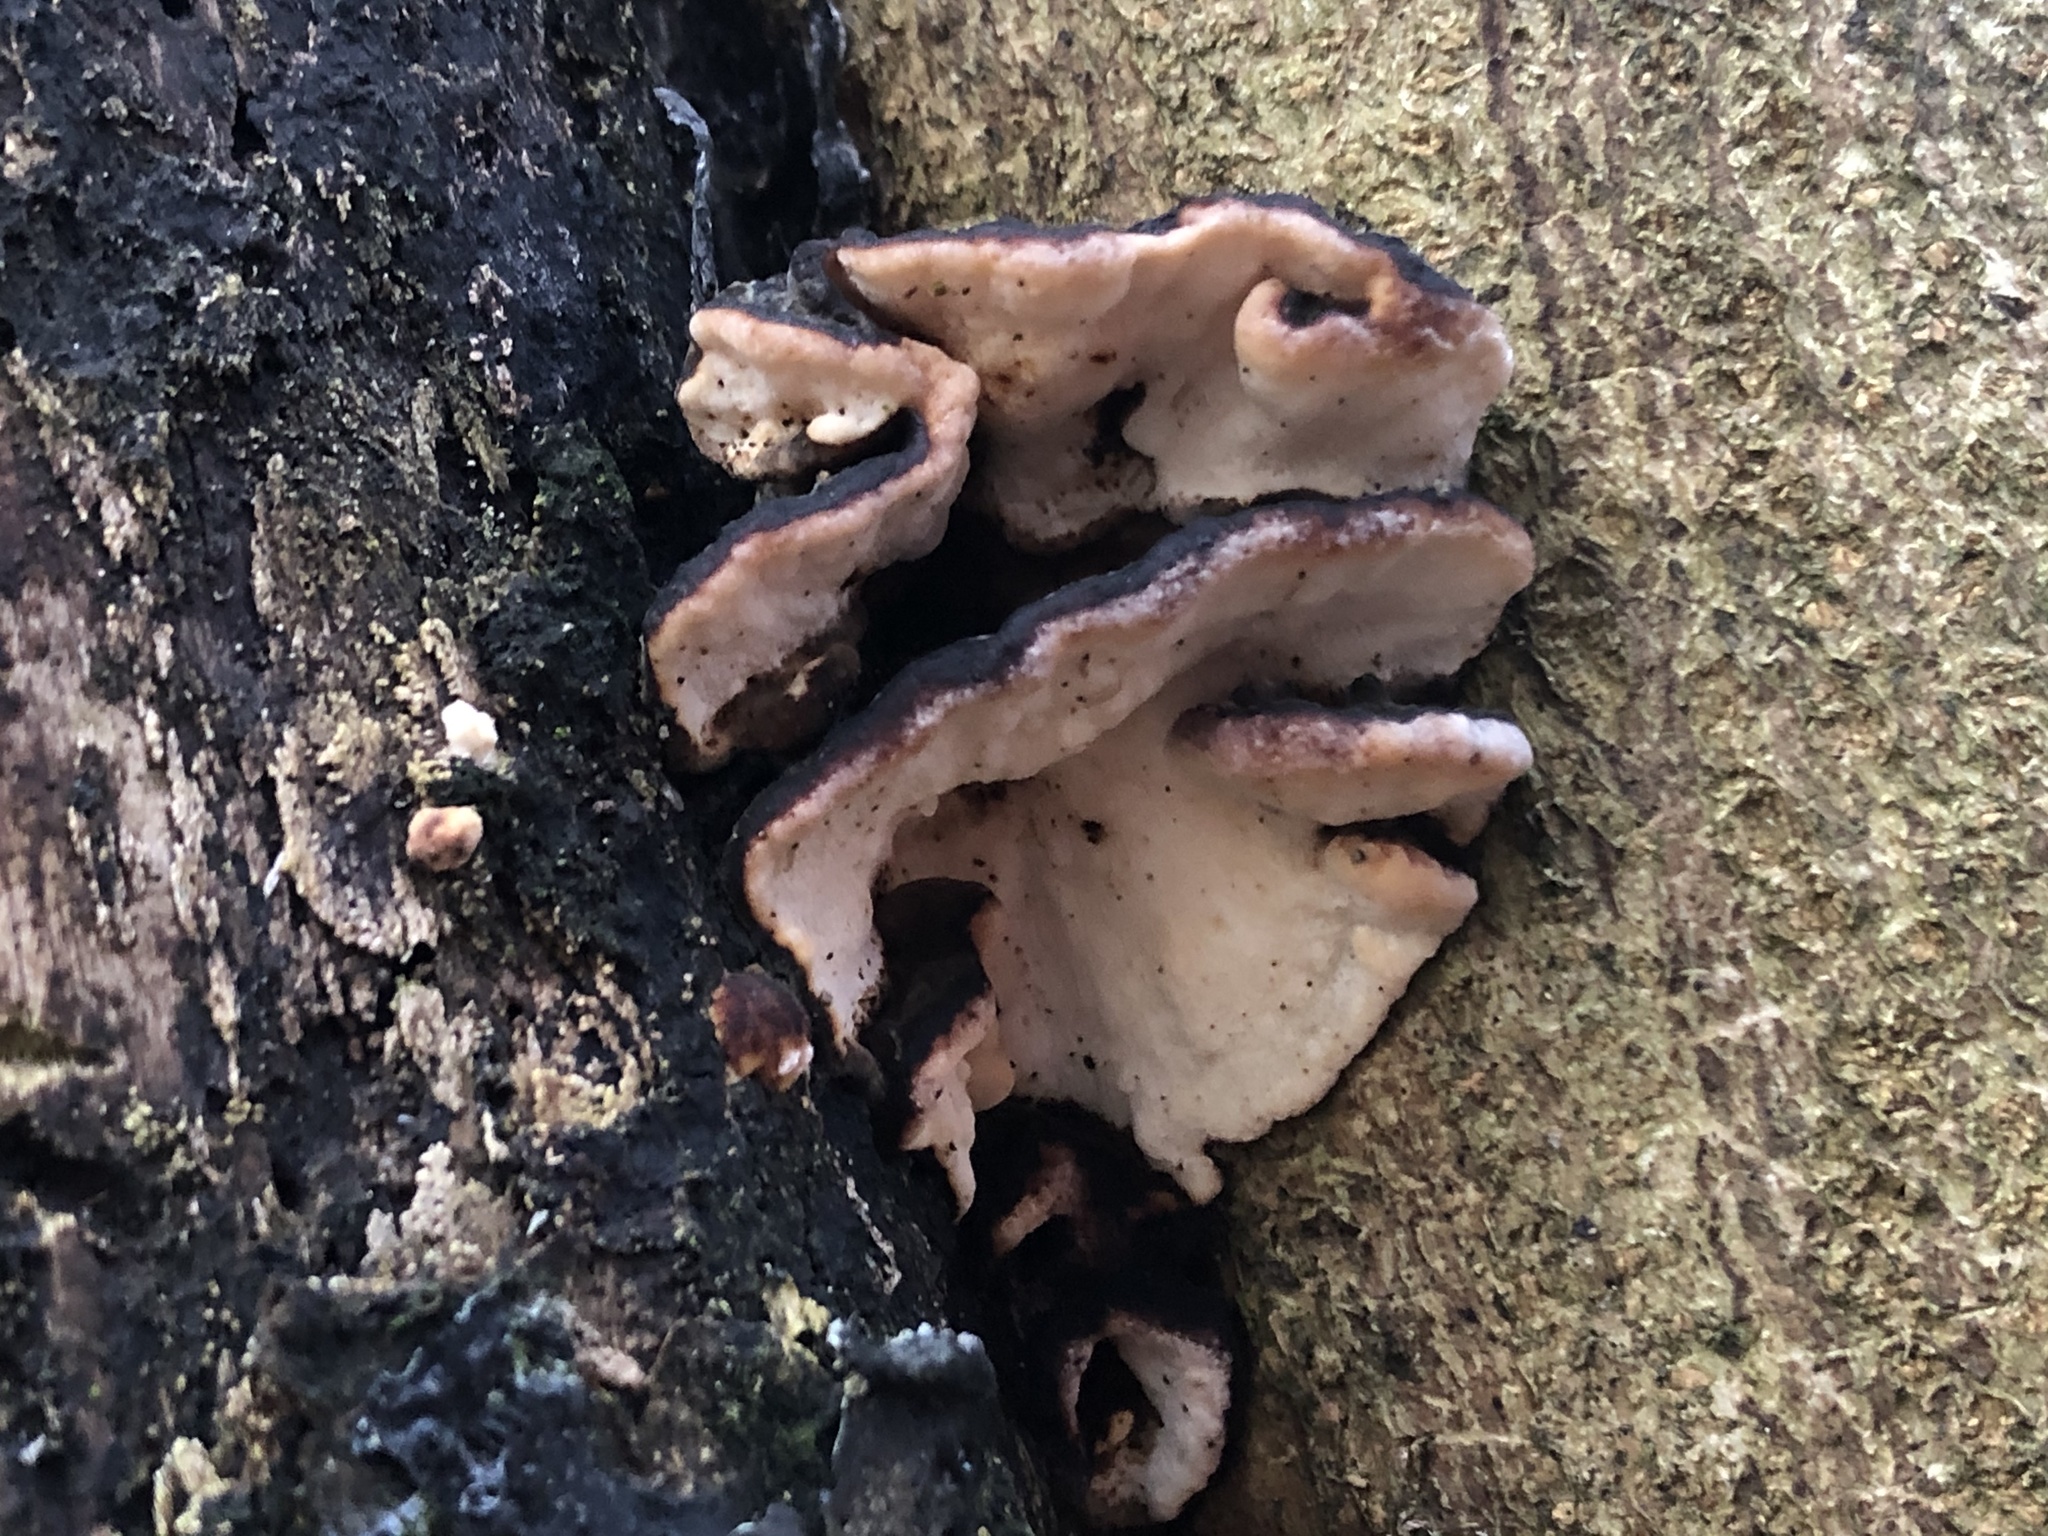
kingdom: Fungi
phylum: Basidiomycota
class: Agaricomycetes
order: Polyporales
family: Polyporaceae
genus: Trametes
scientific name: Trametes versicolor
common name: Turkeytail
